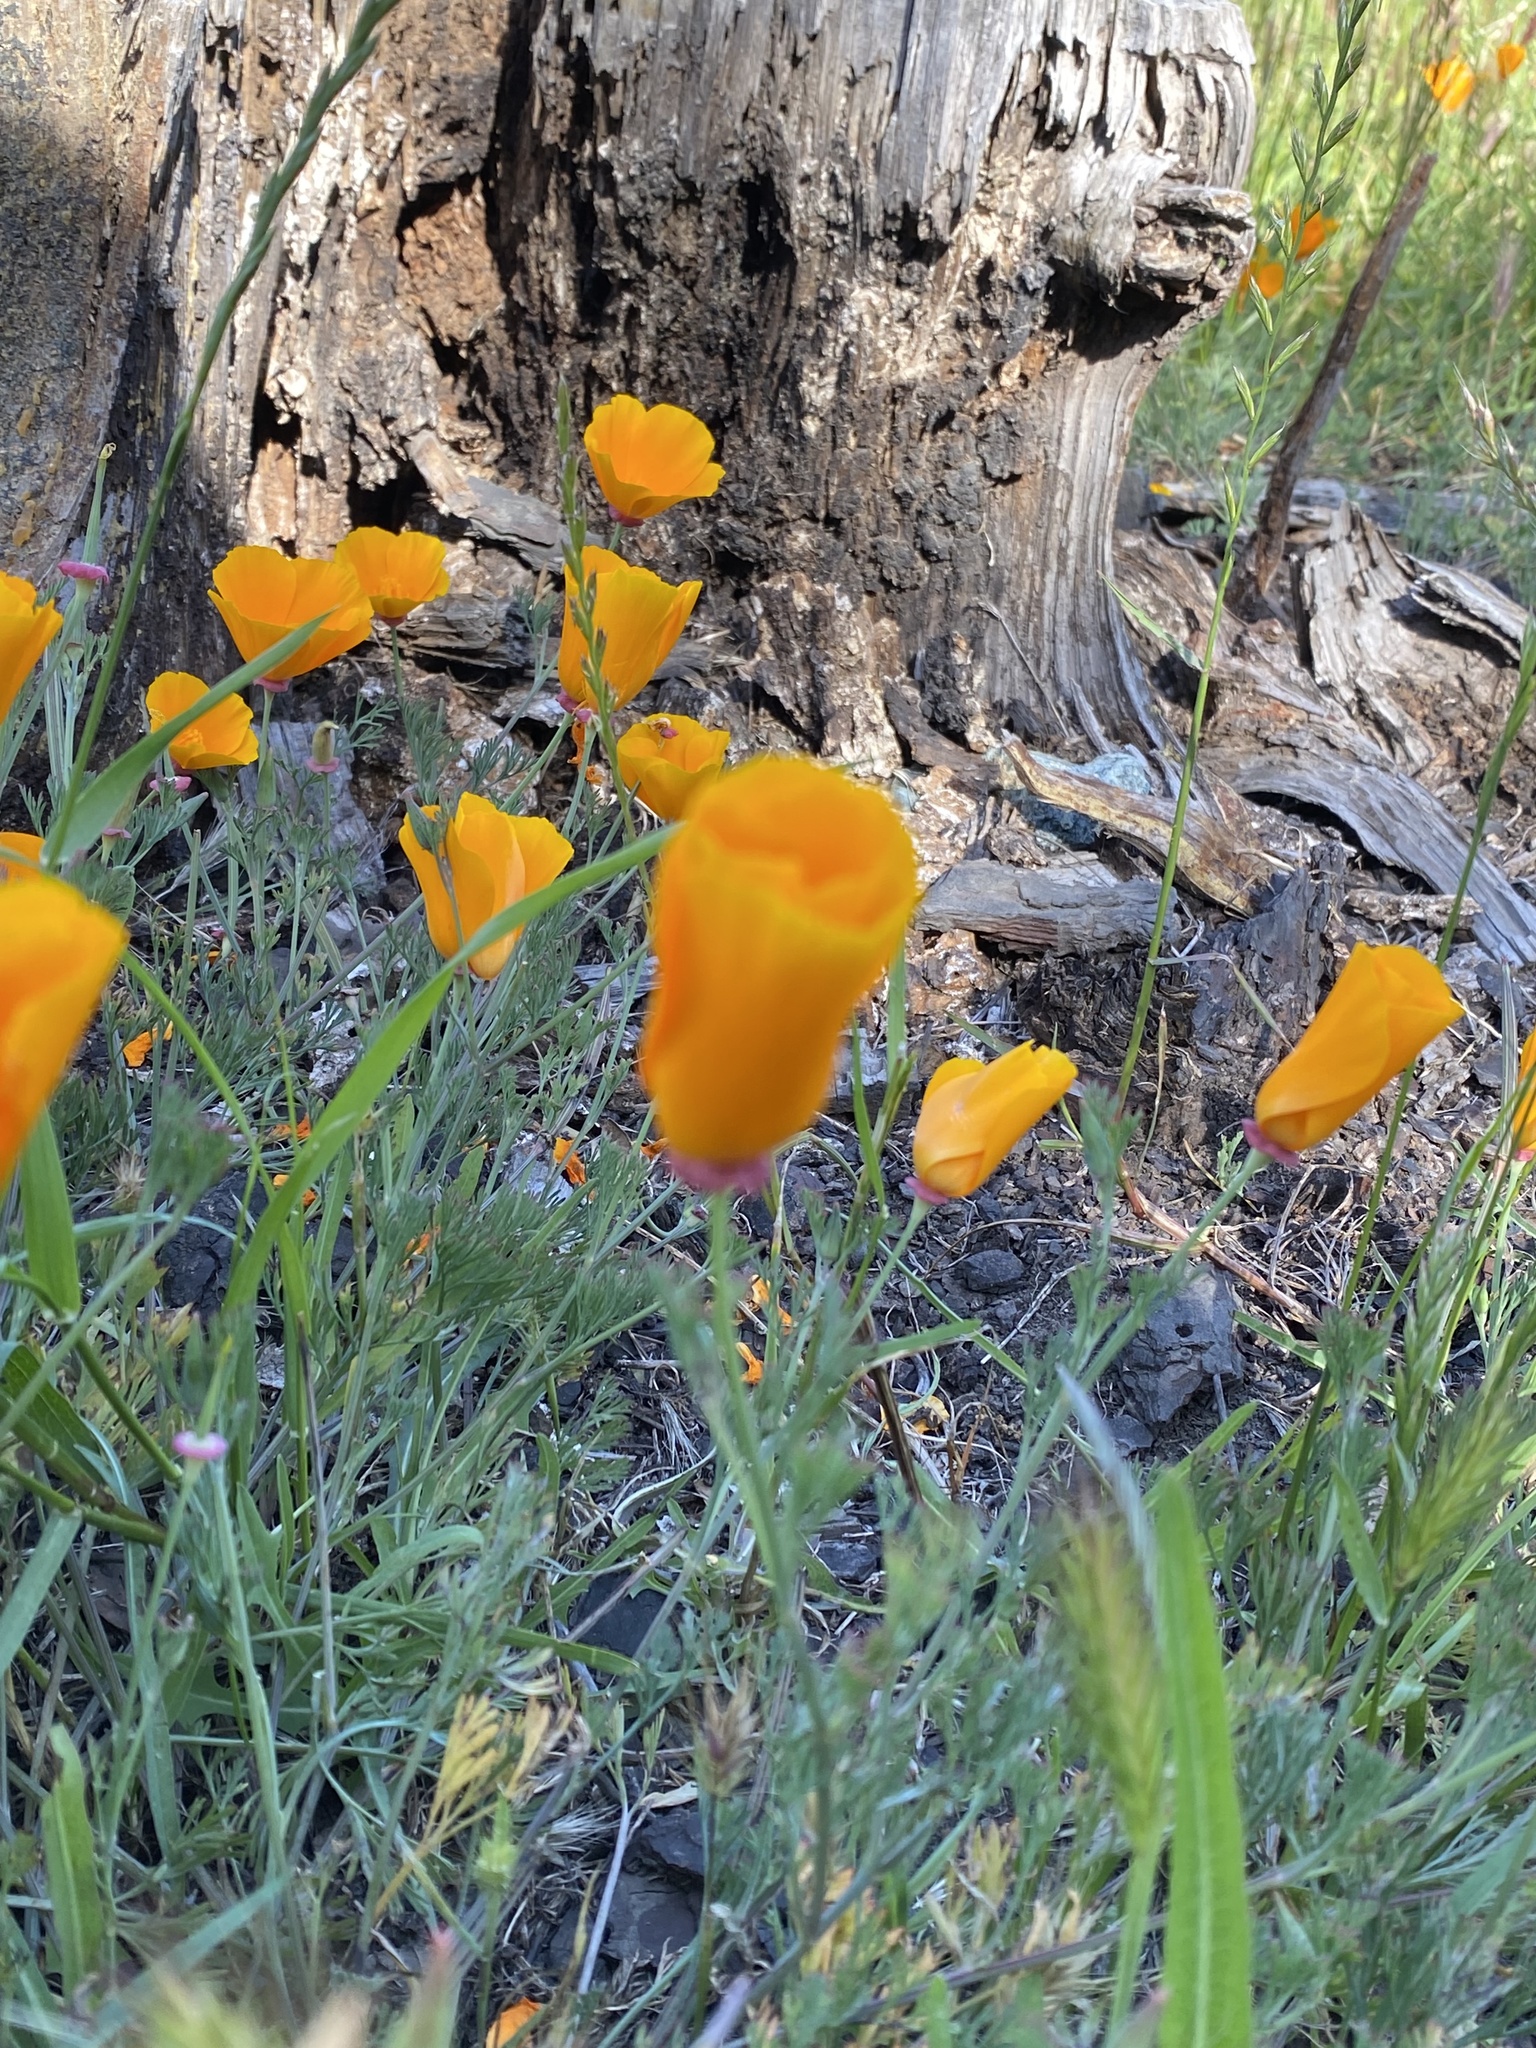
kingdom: Plantae
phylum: Tracheophyta
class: Magnoliopsida
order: Ranunculales
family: Papaveraceae
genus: Eschscholzia
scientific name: Eschscholzia californica
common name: California poppy
